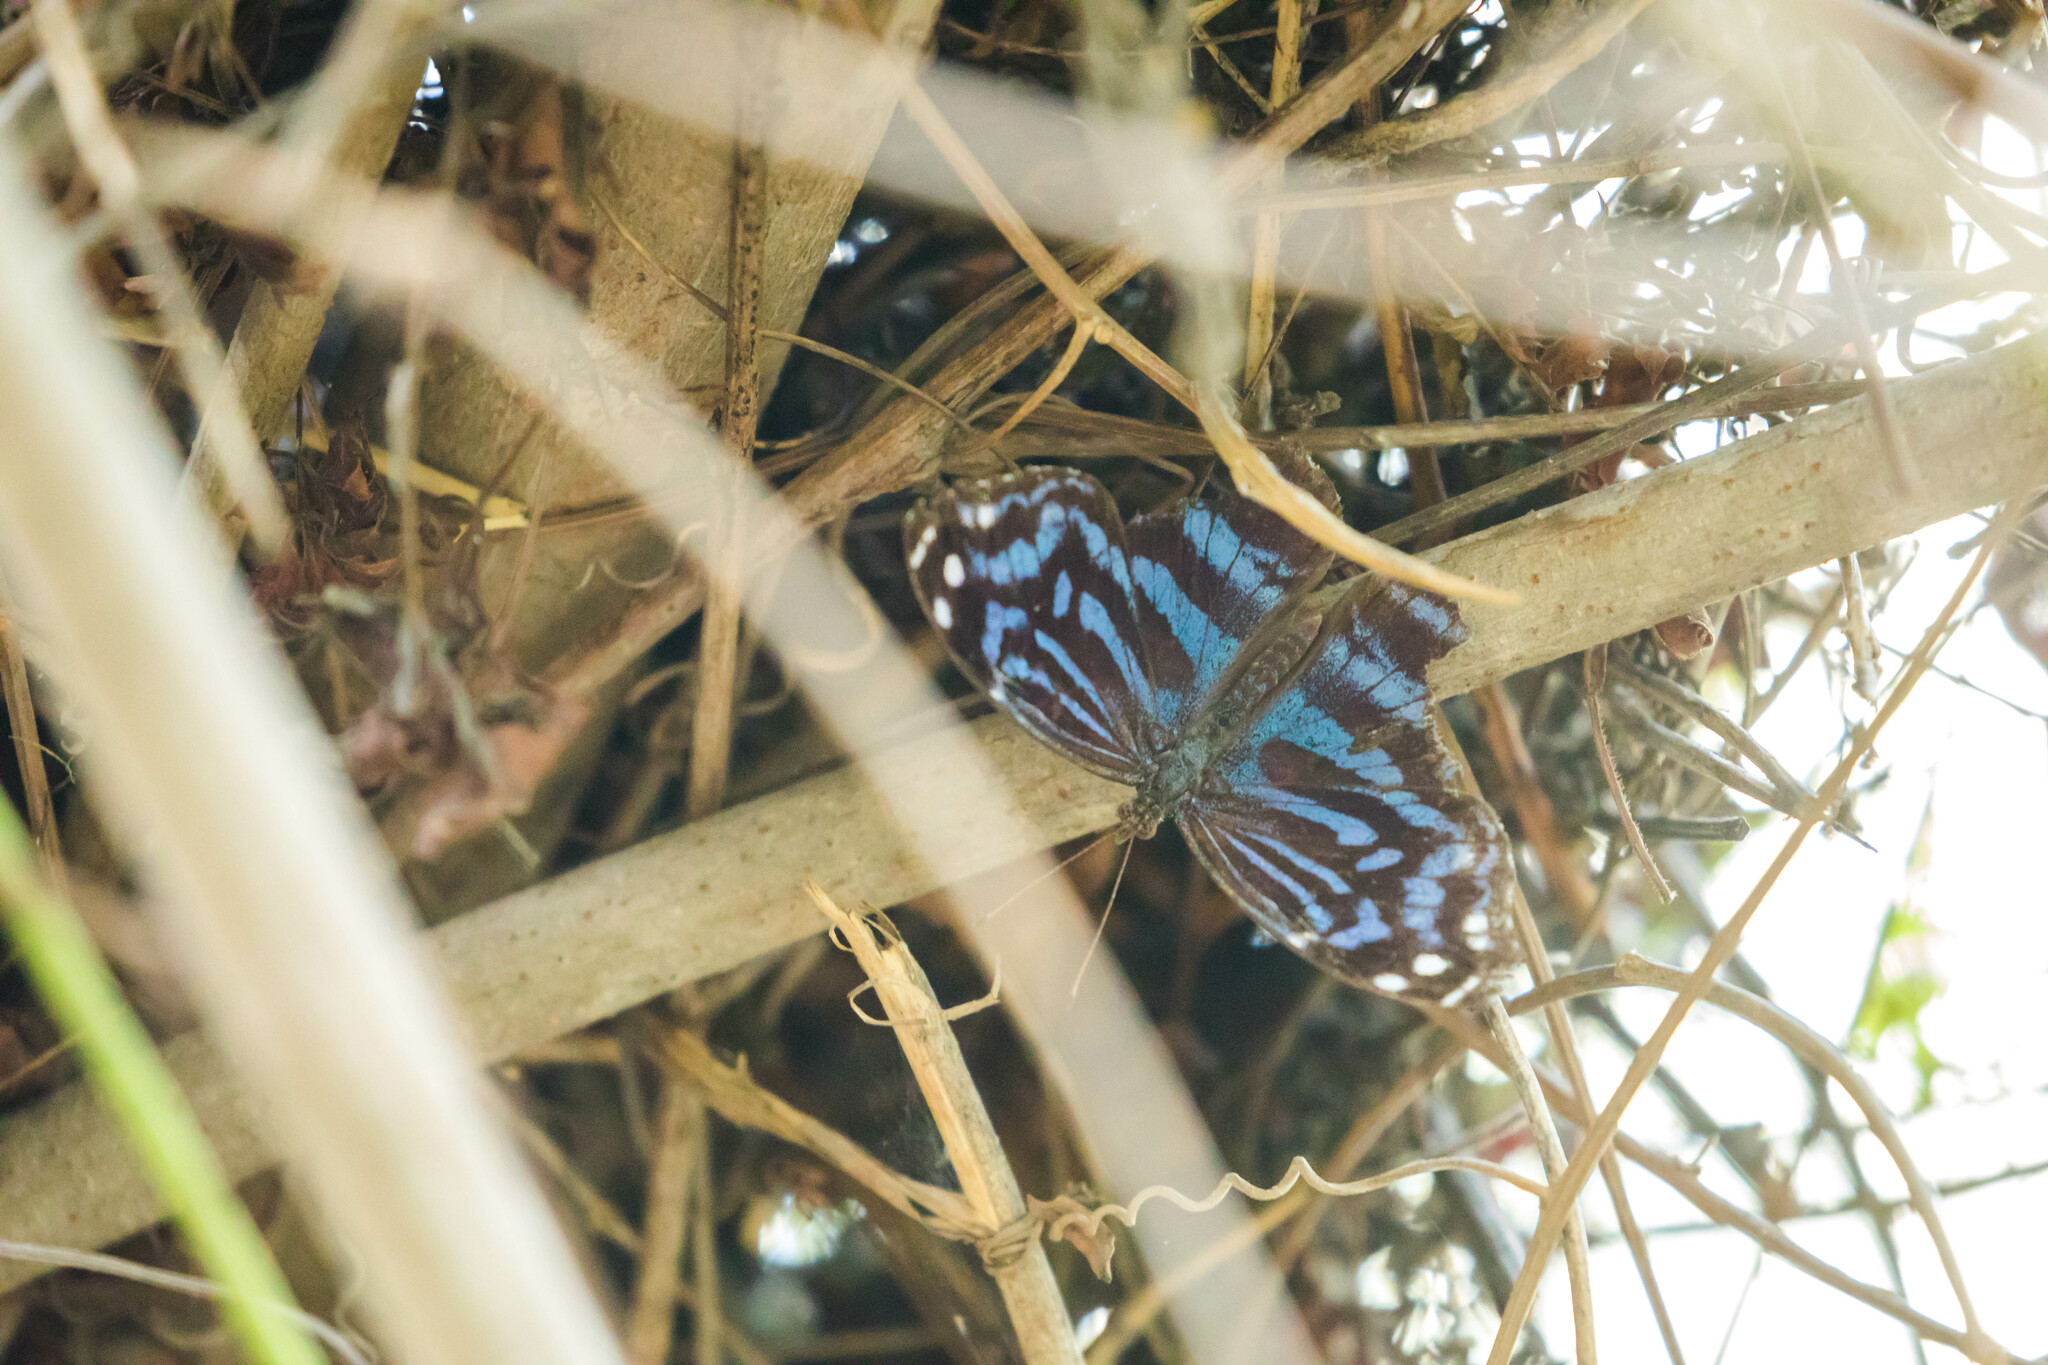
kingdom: Animalia
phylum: Arthropoda
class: Insecta
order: Lepidoptera
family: Nymphalidae
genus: Myscelia
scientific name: Myscelia ethusa
